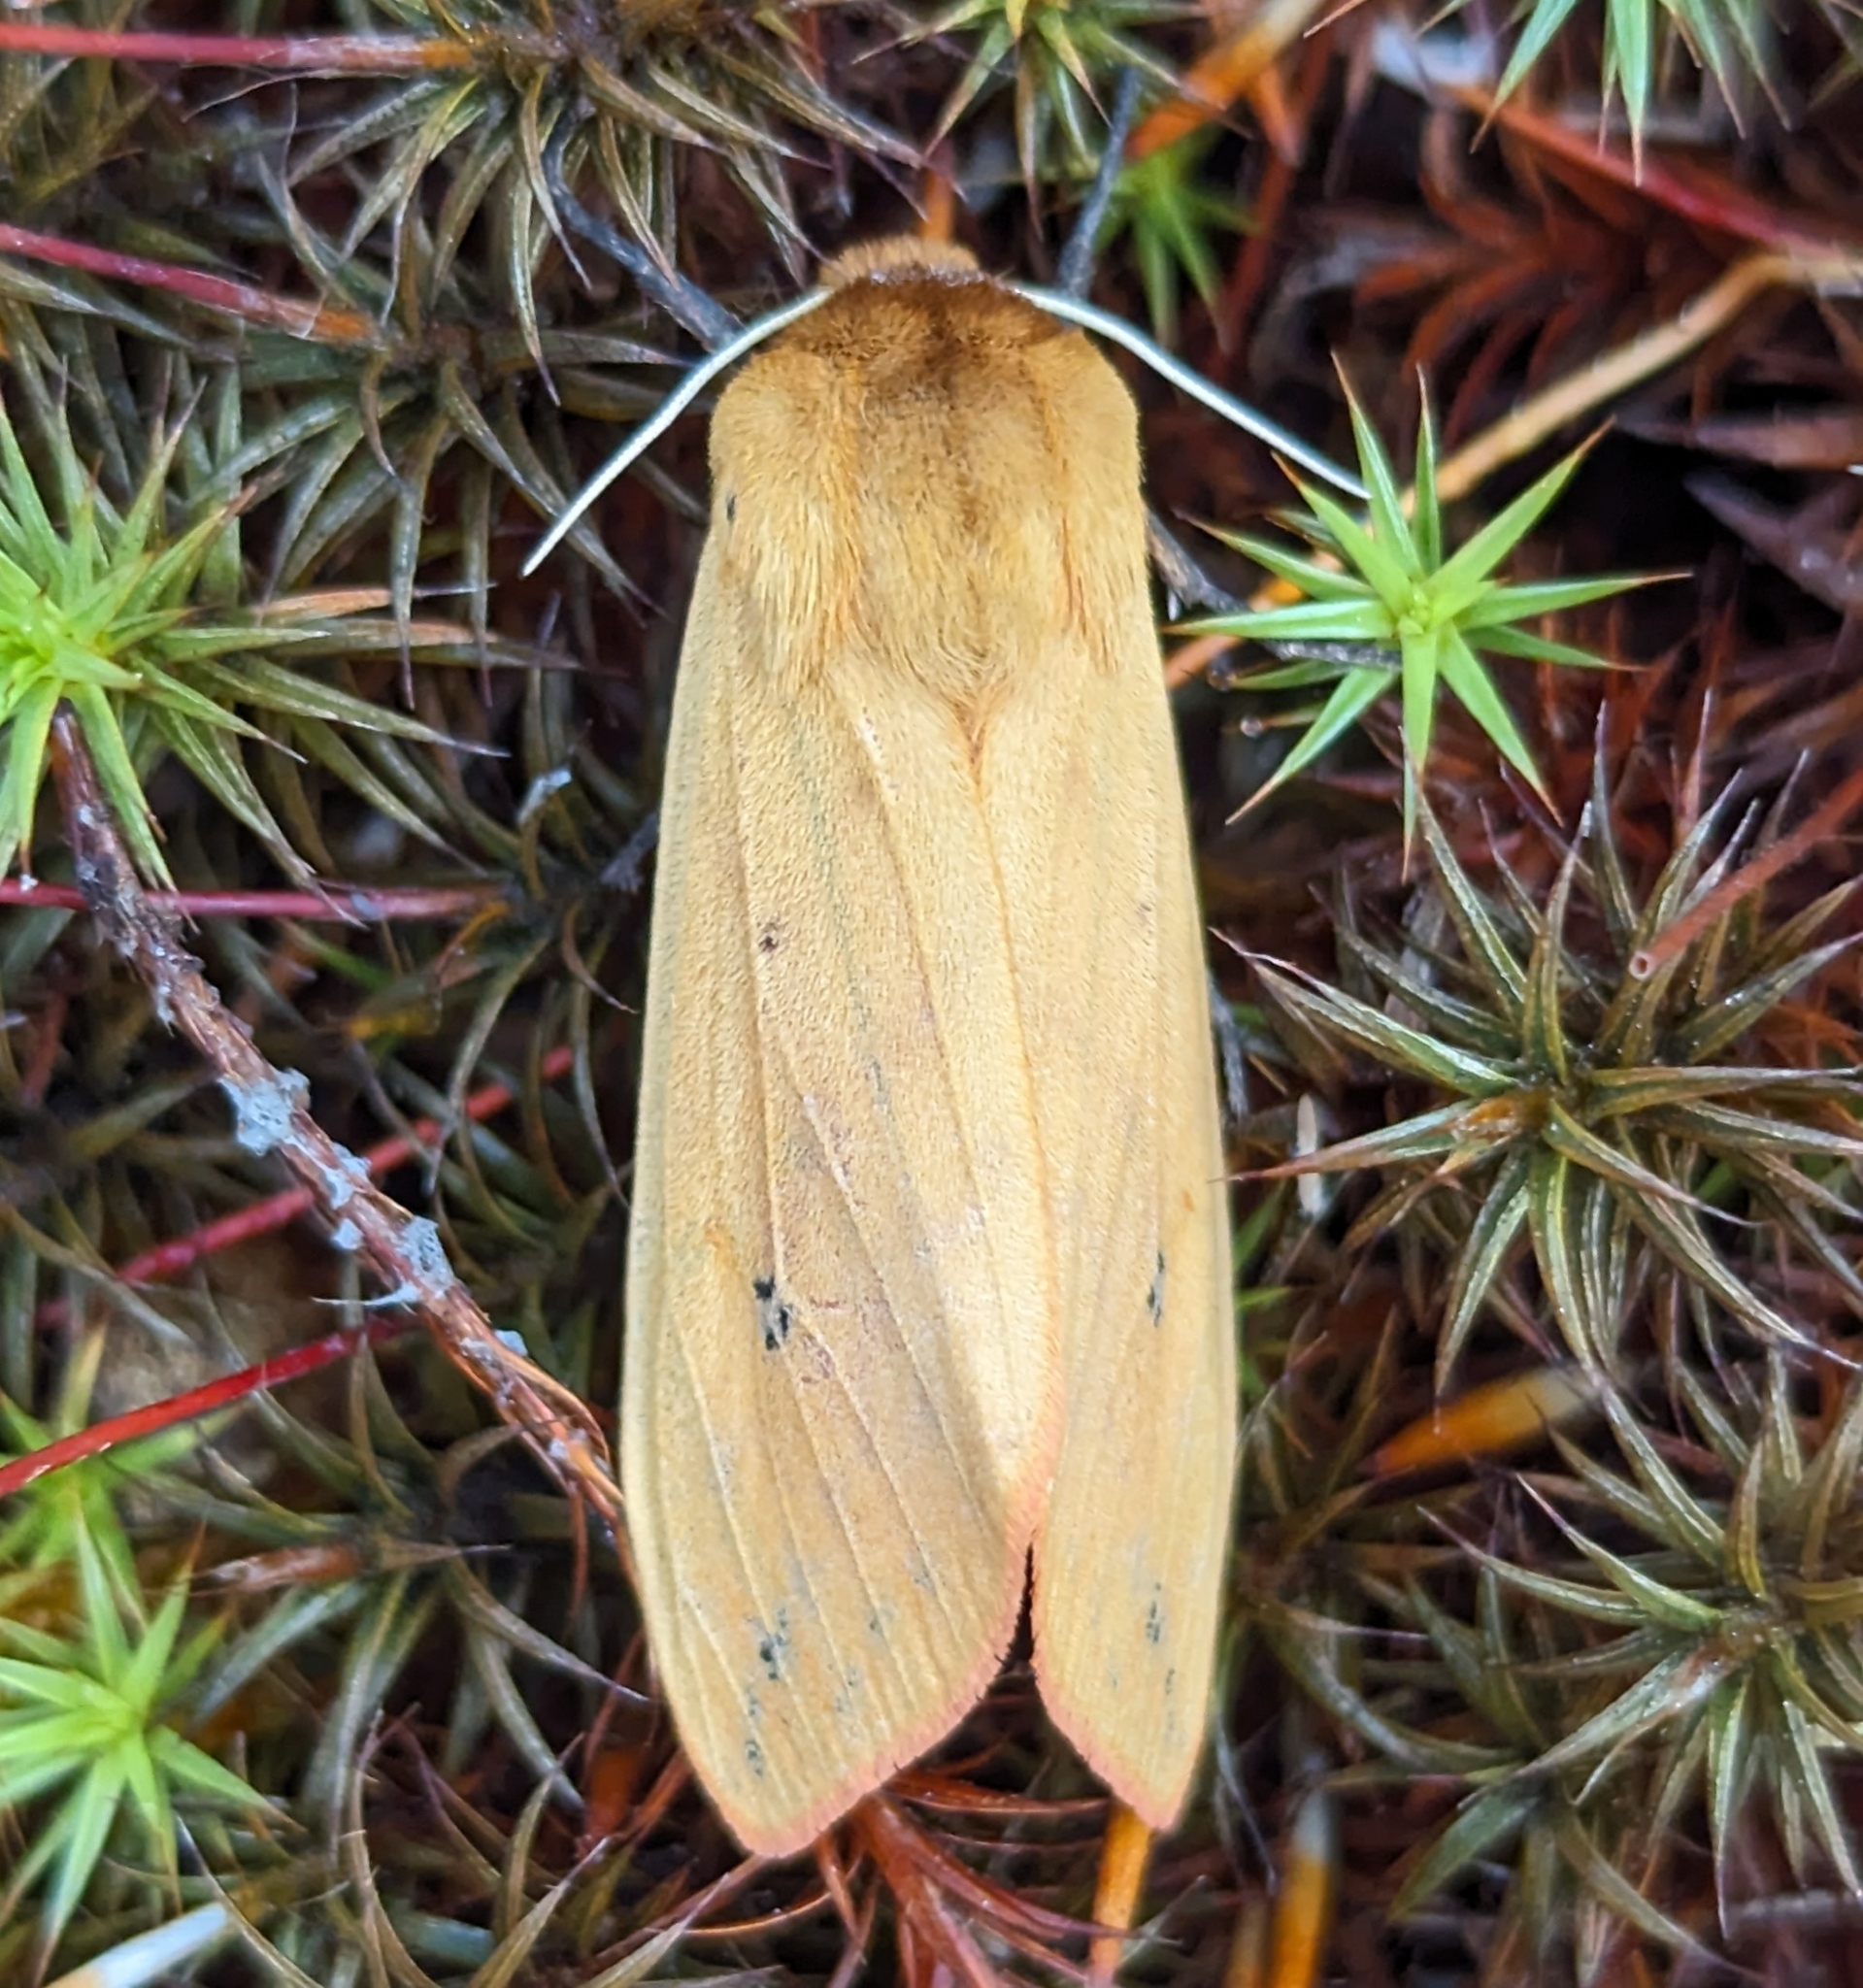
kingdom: Animalia
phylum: Arthropoda
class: Insecta
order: Lepidoptera
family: Erebidae
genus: Pyrrharctia
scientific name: Pyrrharctia isabella
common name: Isabella tiger moth
